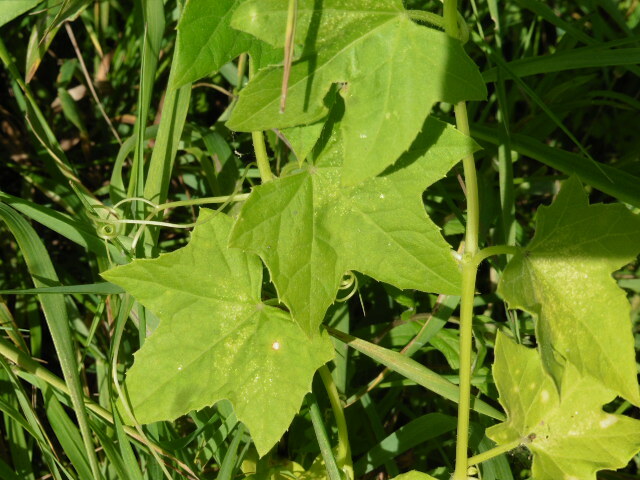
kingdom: Plantae
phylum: Tracheophyta
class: Magnoliopsida
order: Cucurbitales
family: Cucurbitaceae
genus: Echinocystis
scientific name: Echinocystis lobata
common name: Wild cucumber
